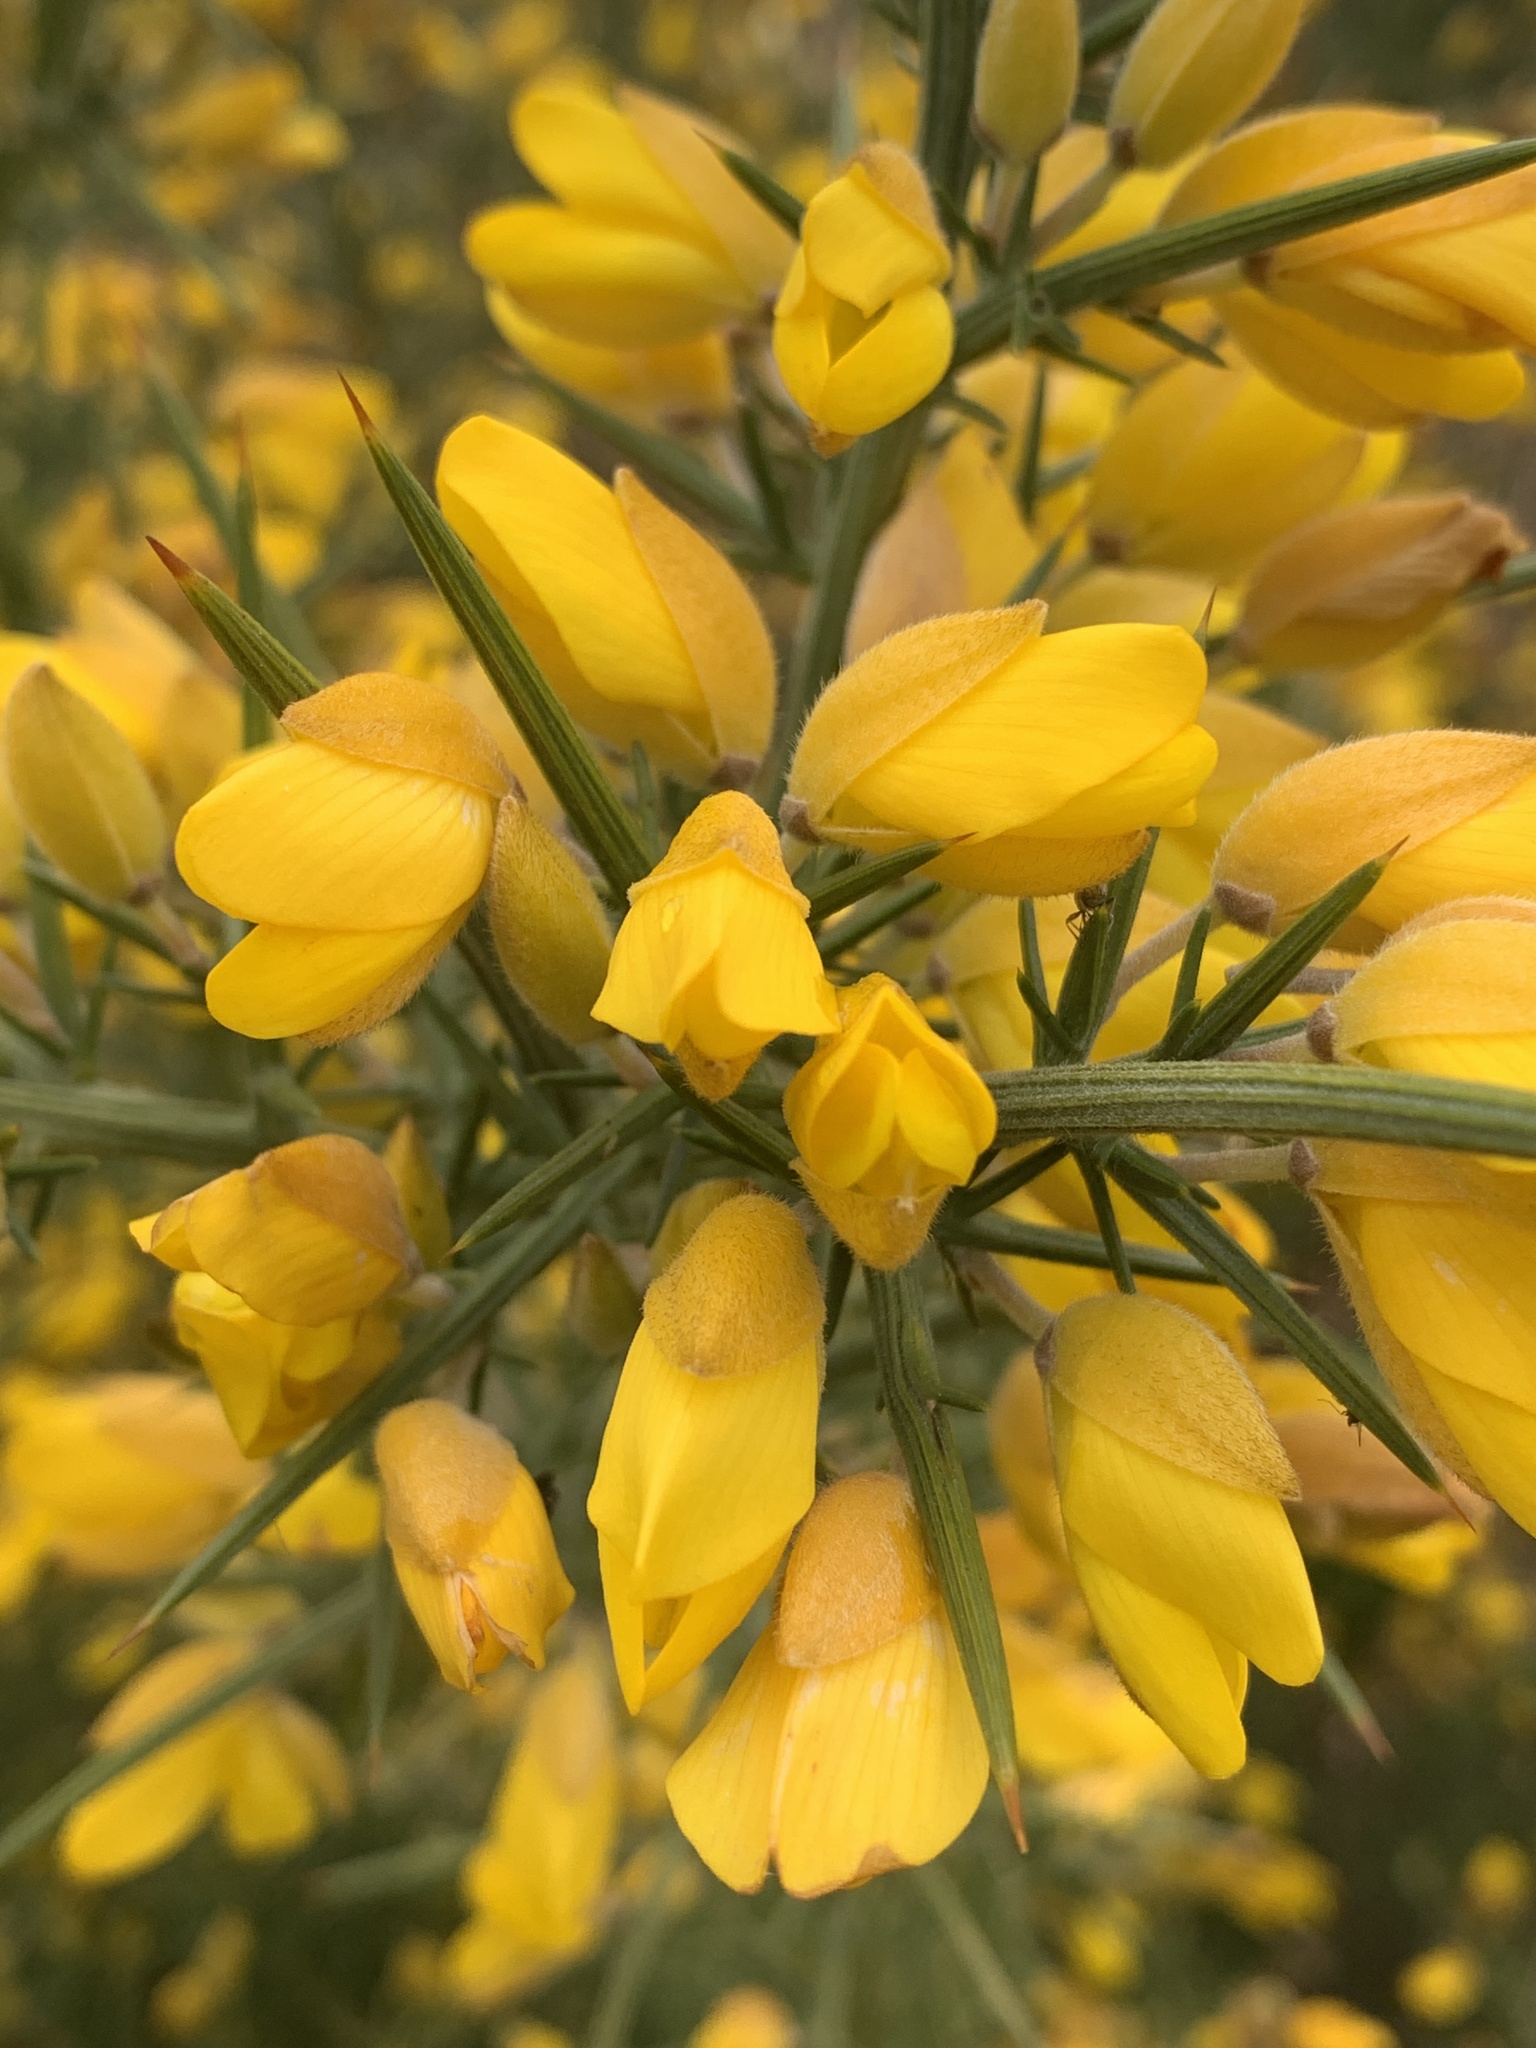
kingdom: Plantae
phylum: Tracheophyta
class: Magnoliopsida
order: Fabales
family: Fabaceae
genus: Ulex
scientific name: Ulex europaeus
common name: Common gorse
